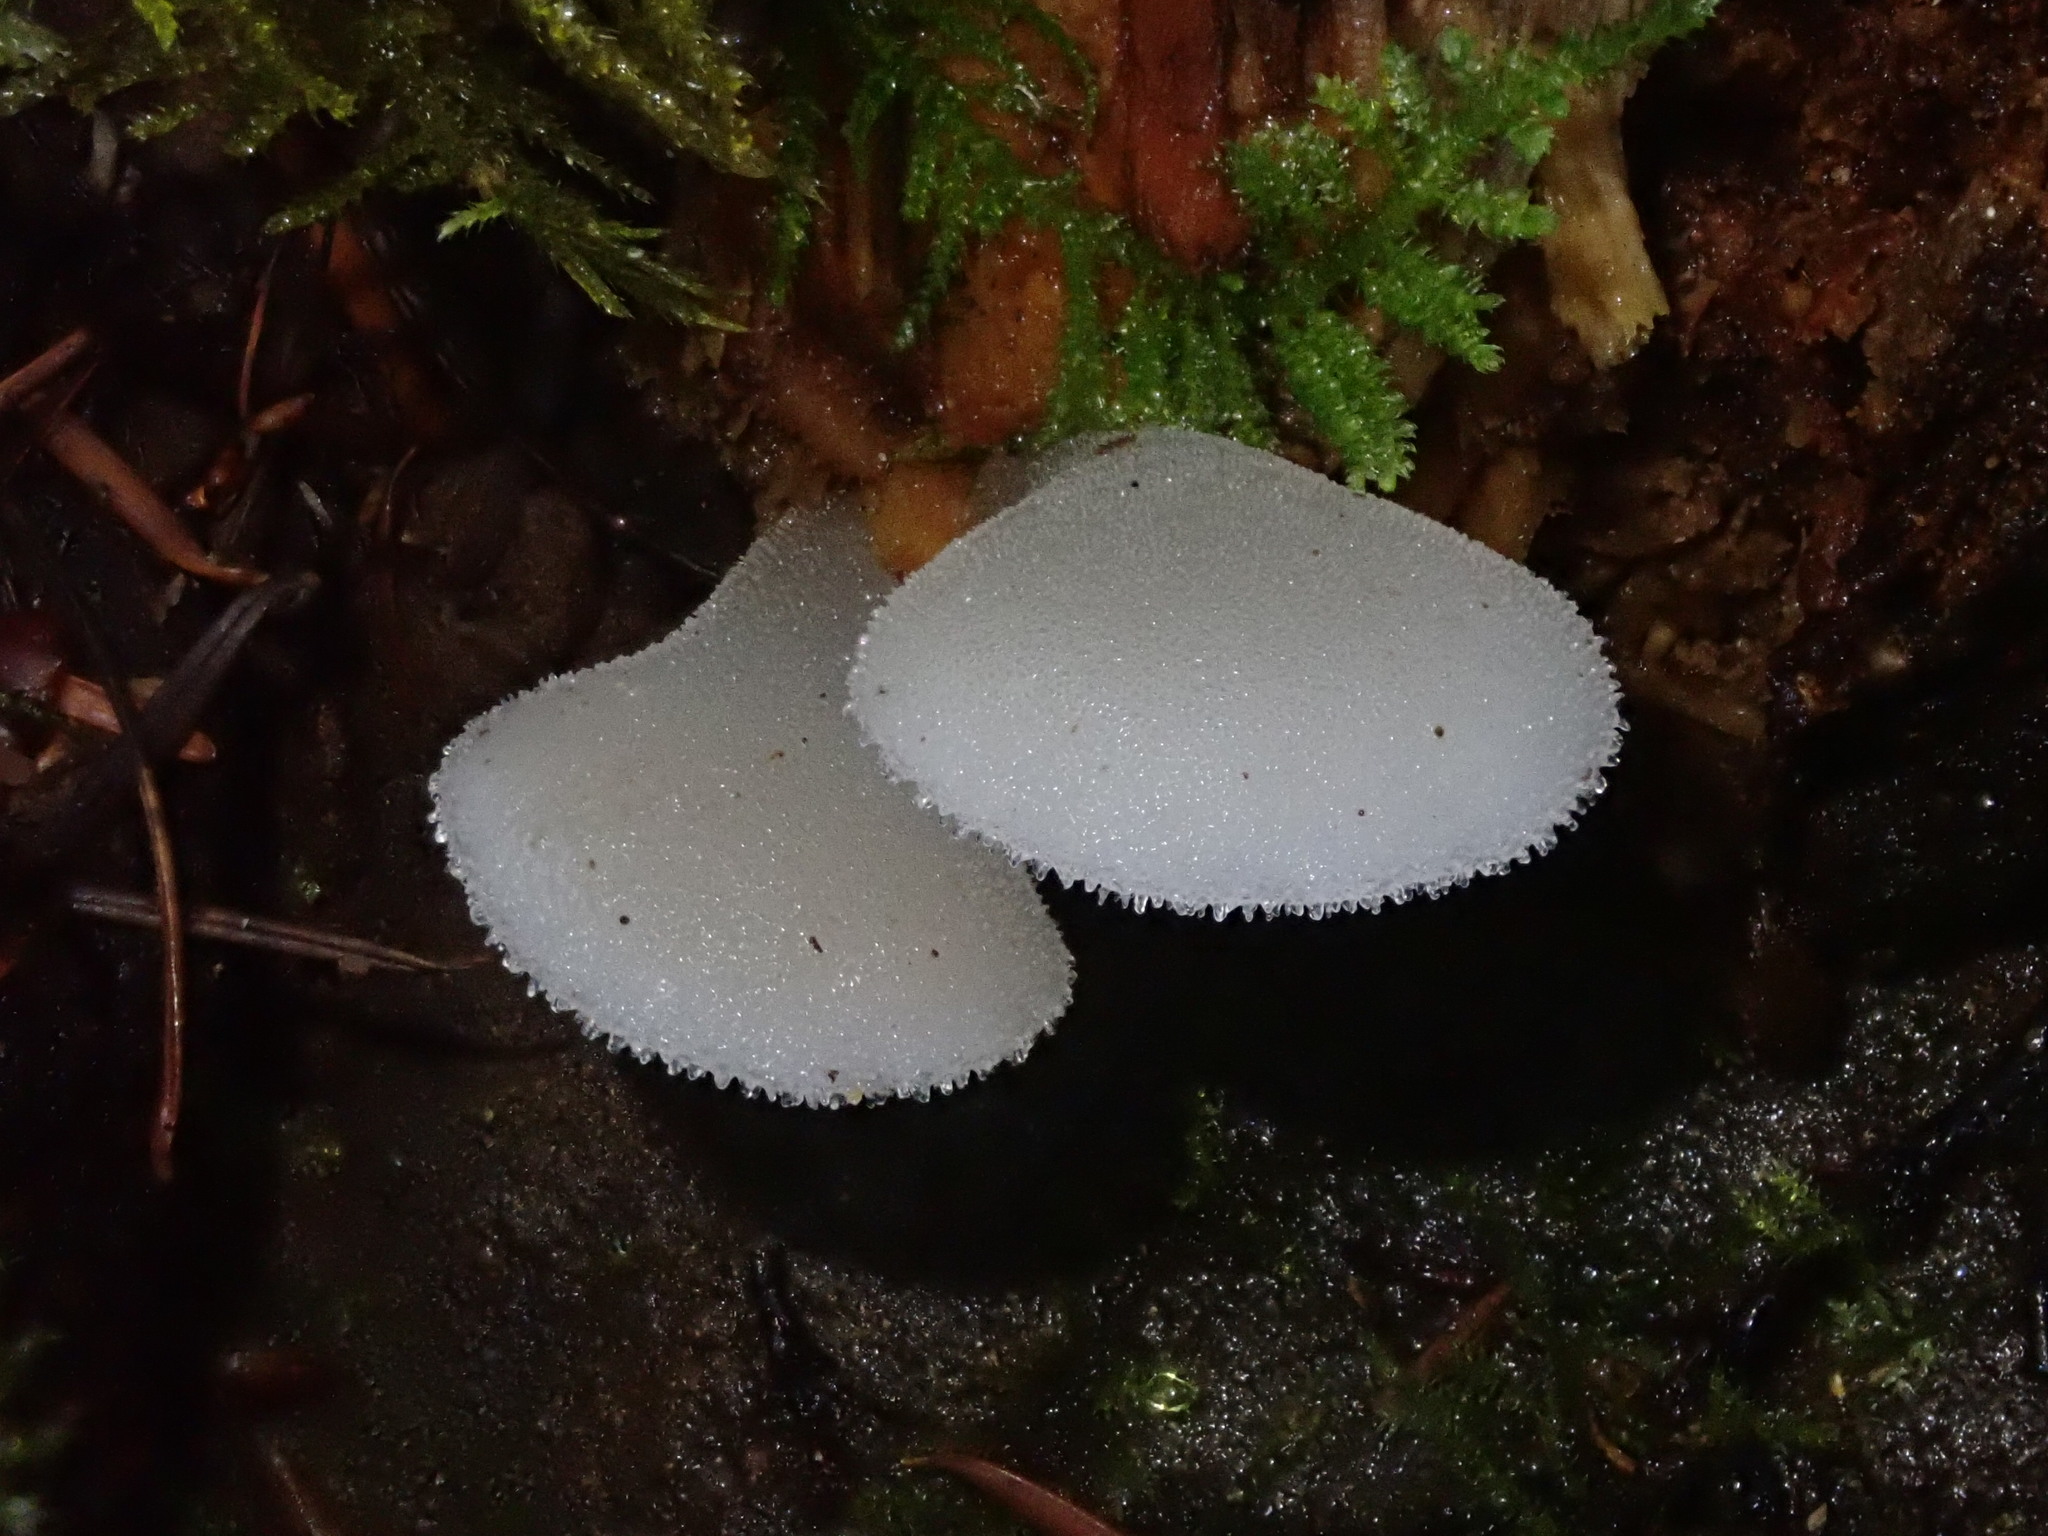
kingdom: Fungi
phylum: Basidiomycota
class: Agaricomycetes
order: Auriculariales
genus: Pseudohydnum
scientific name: Pseudohydnum gelatinosum
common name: Jelly tongue
